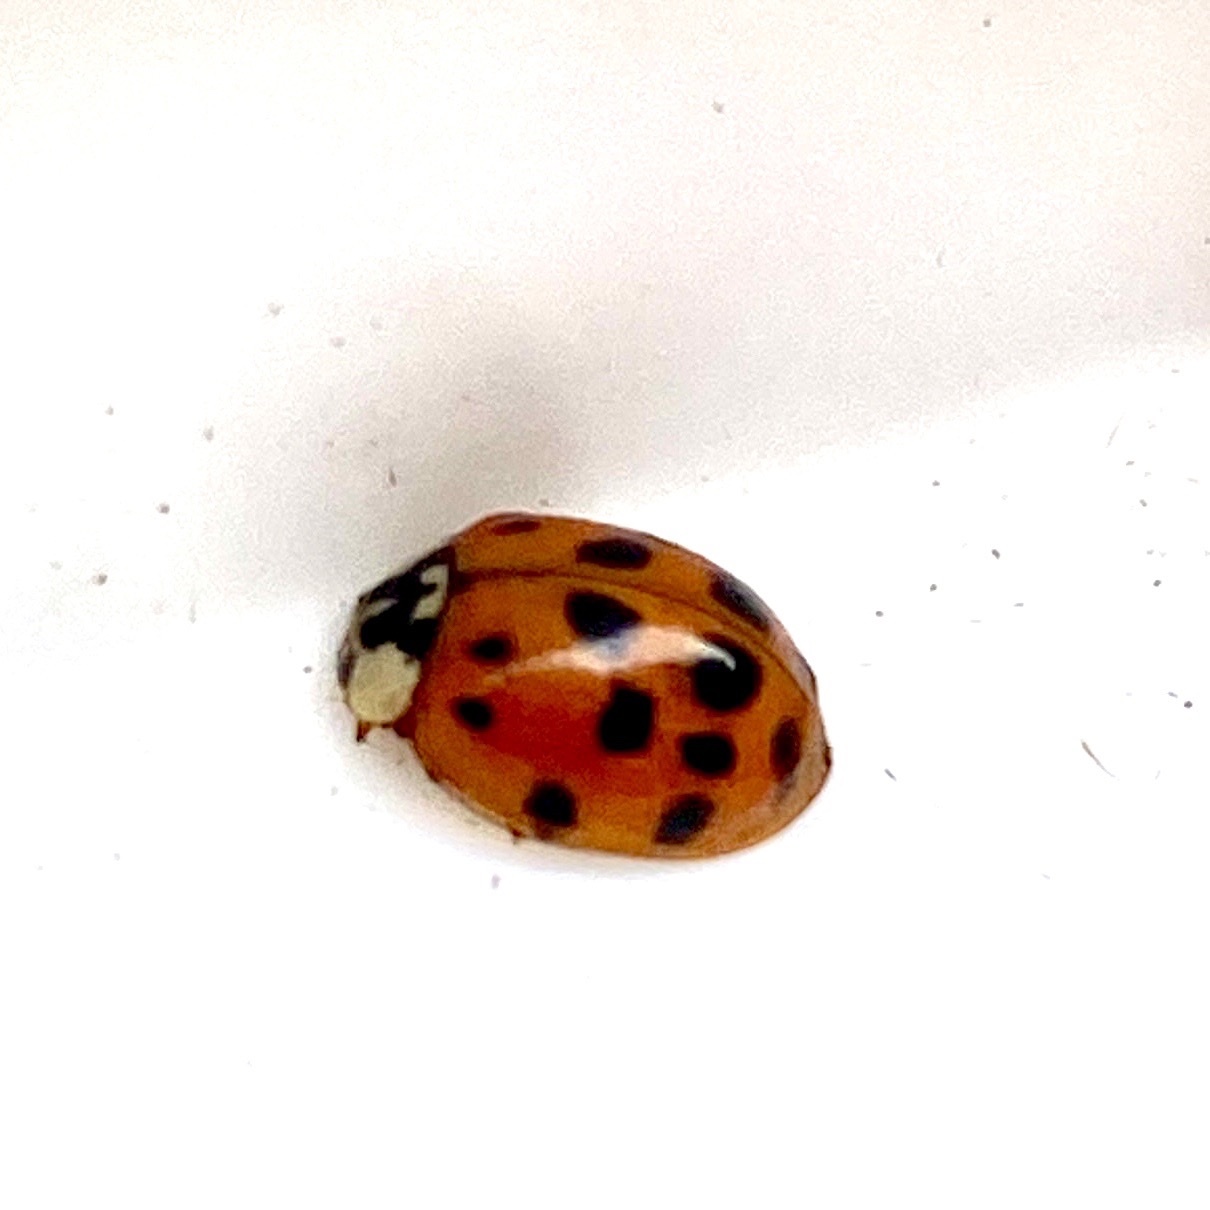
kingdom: Animalia
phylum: Arthropoda
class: Insecta
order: Coleoptera
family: Coccinellidae
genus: Harmonia
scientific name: Harmonia axyridis
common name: Harlequin ladybird
